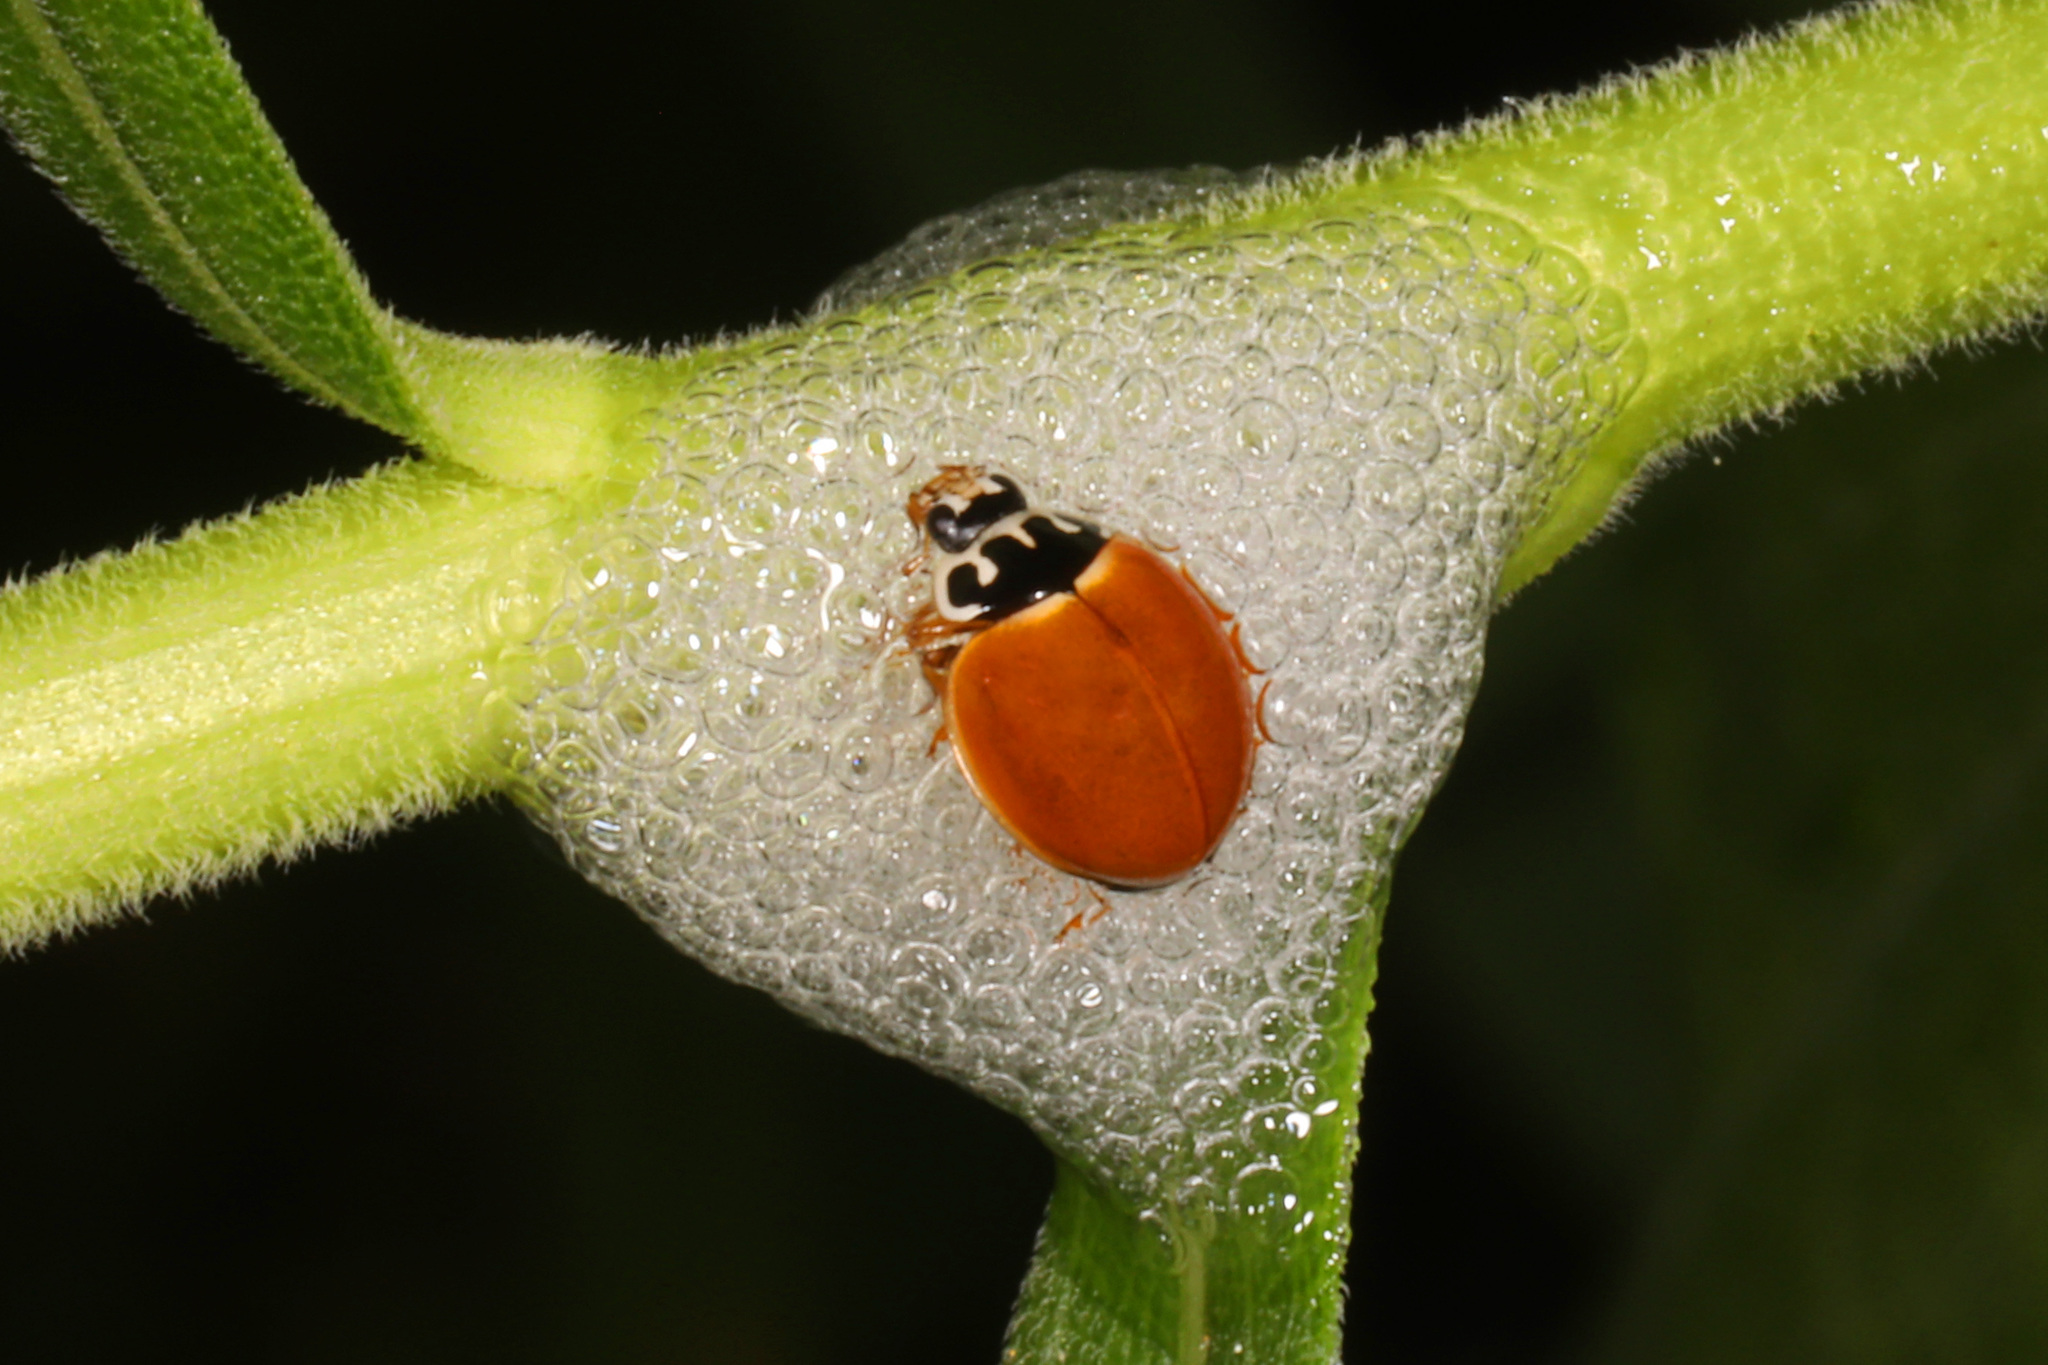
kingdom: Animalia
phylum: Arthropoda
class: Insecta
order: Coleoptera
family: Coccinellidae
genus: Cycloneda
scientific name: Cycloneda munda
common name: Polished lady beetle
